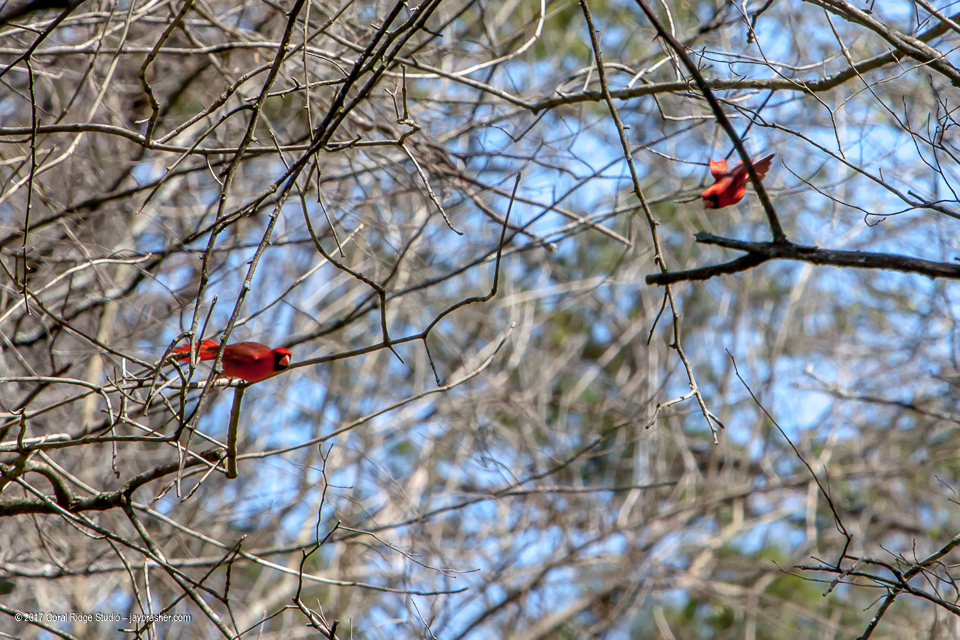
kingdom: Animalia
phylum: Chordata
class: Aves
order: Passeriformes
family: Cardinalidae
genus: Cardinalis
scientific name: Cardinalis cardinalis
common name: Northern cardinal
